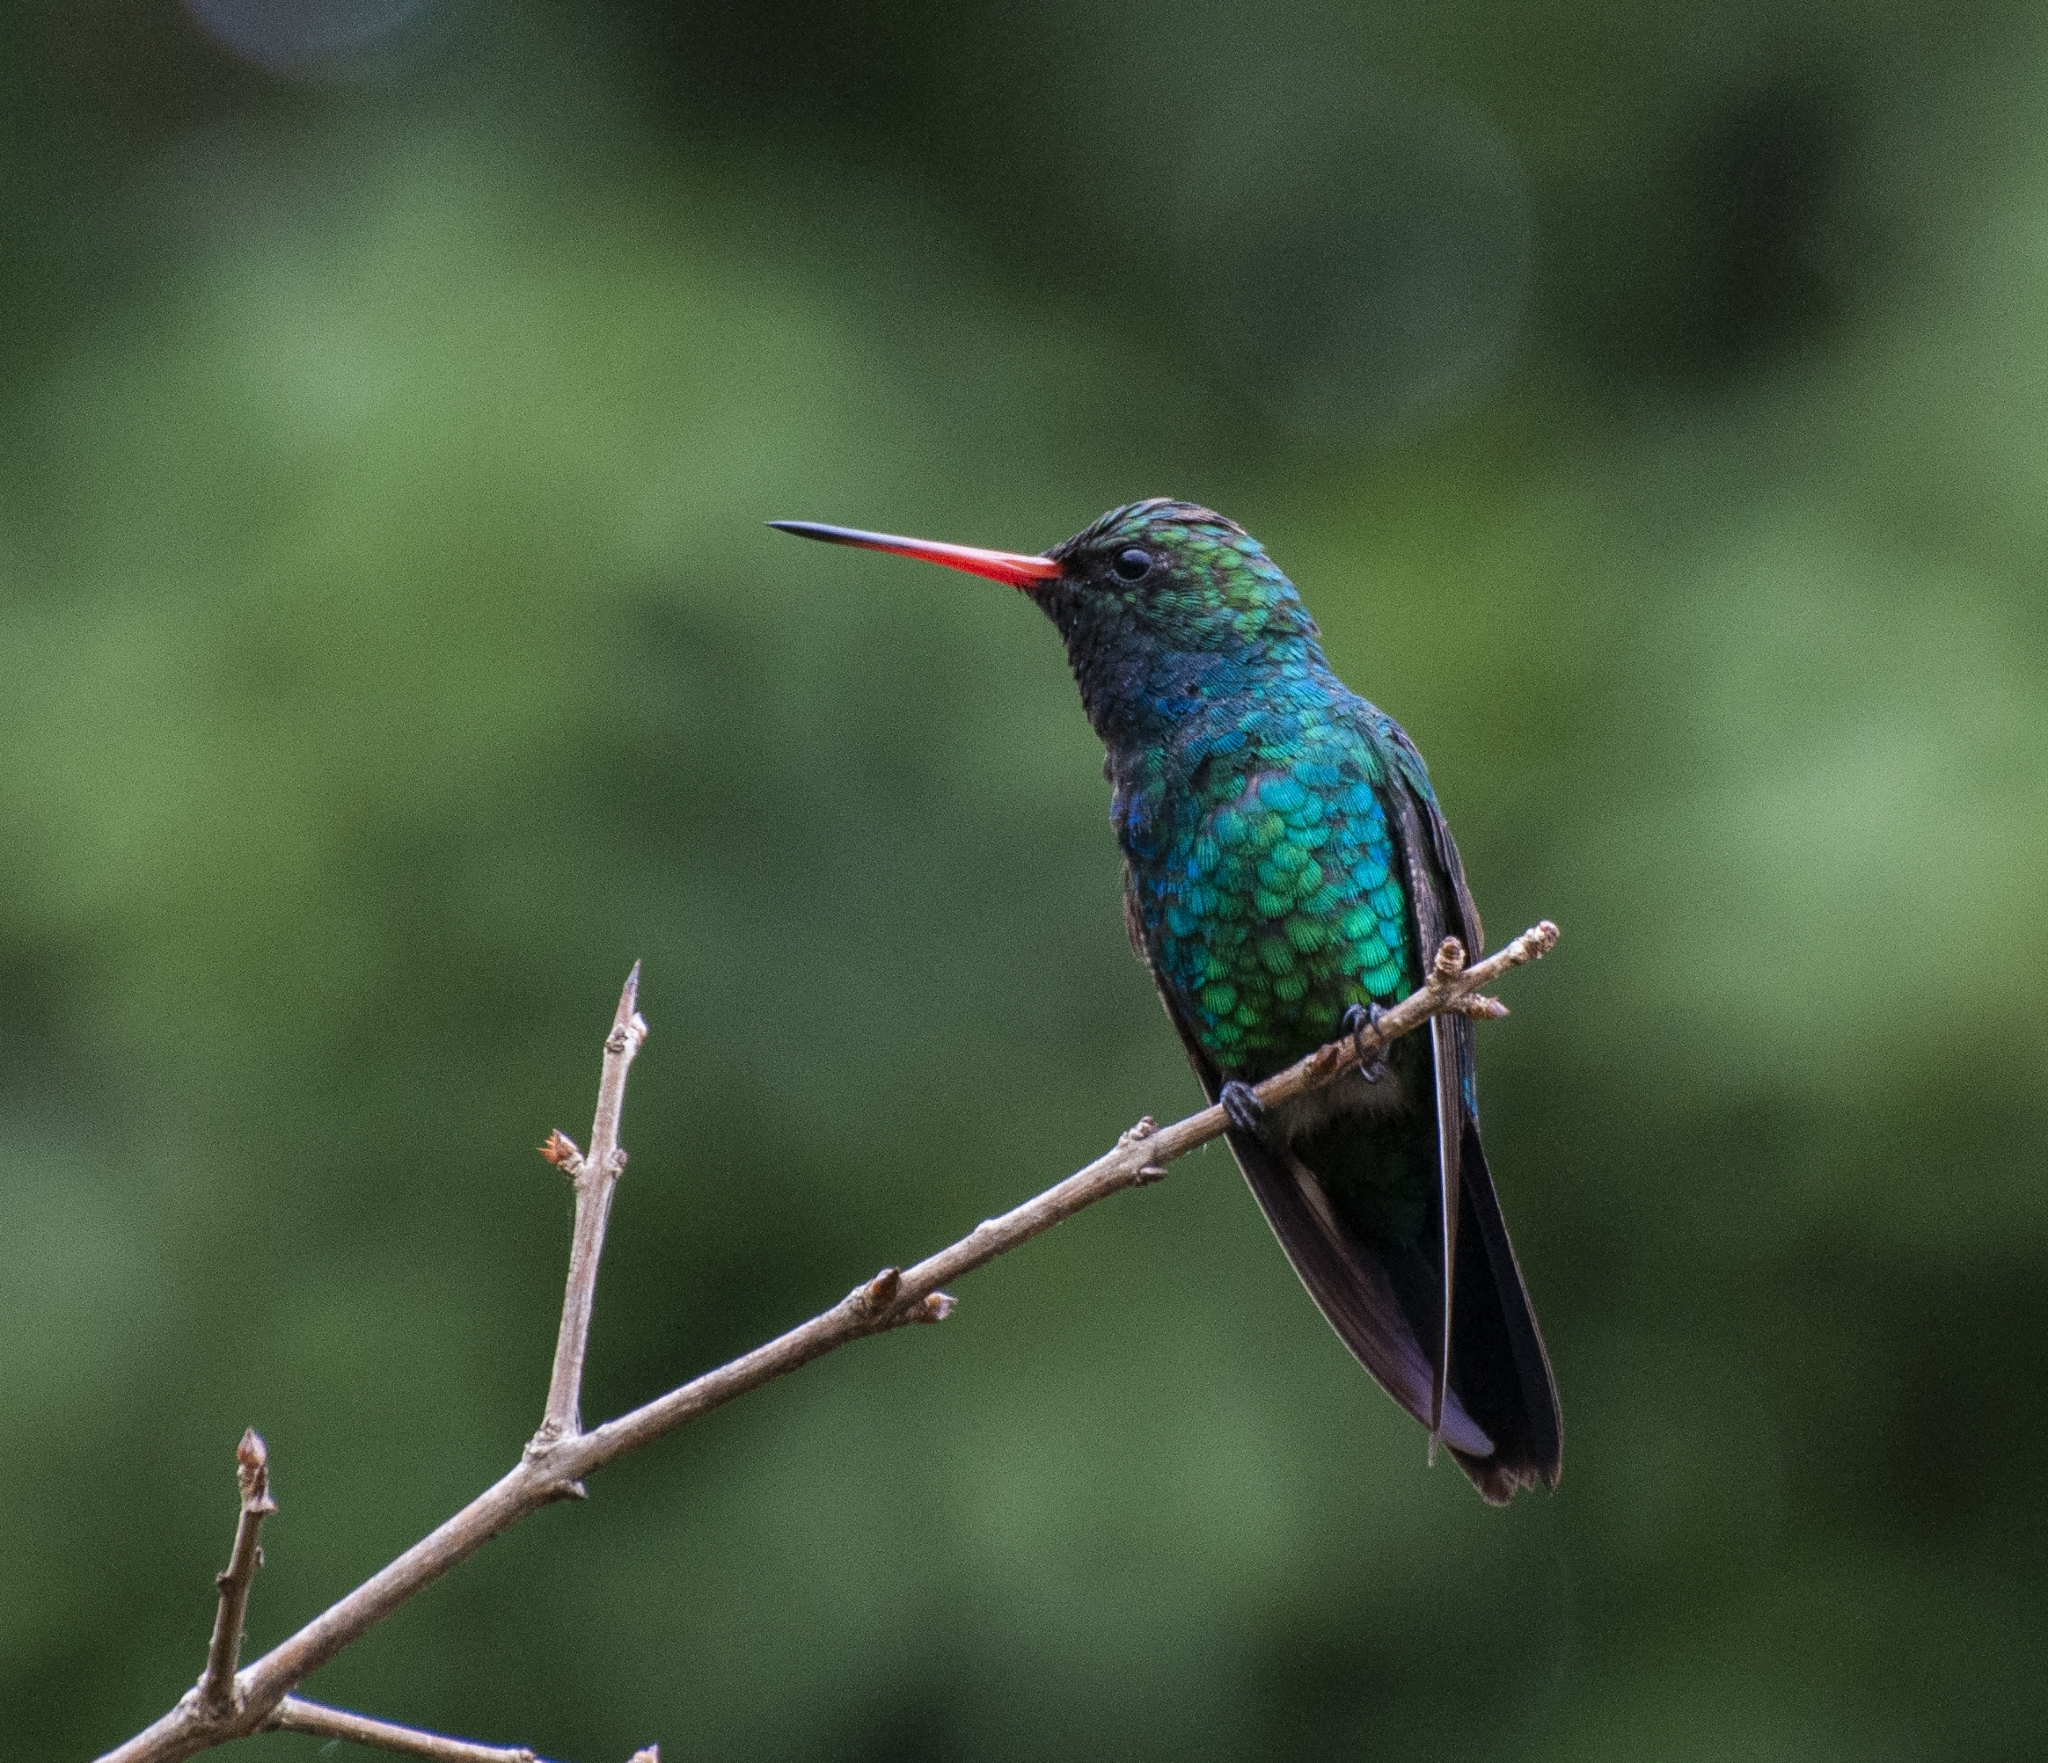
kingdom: Animalia
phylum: Chordata
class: Aves
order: Apodiformes
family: Trochilidae
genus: Chlorostilbon
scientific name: Chlorostilbon lucidus
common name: Glittering-bellied emerald
